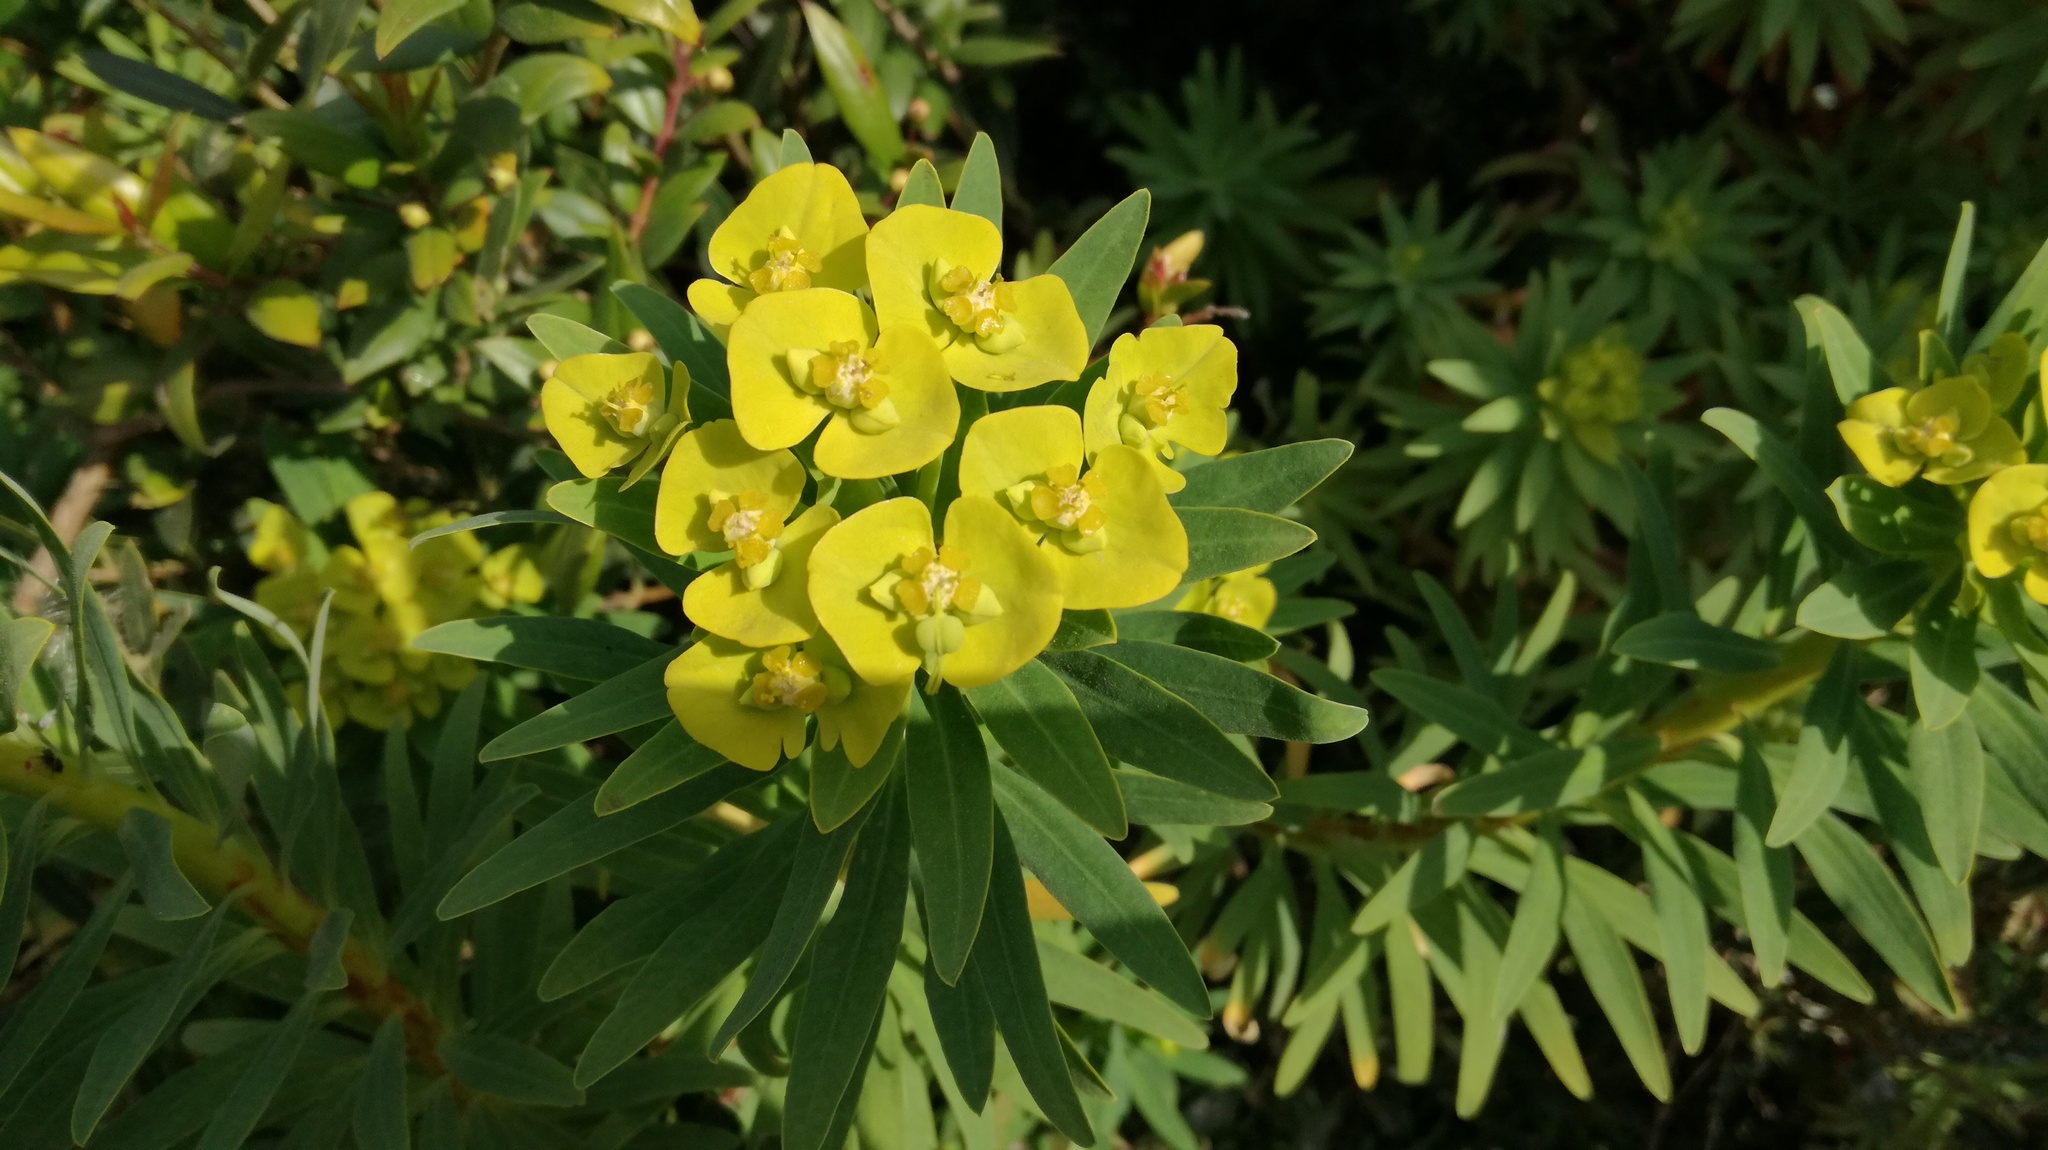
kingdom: Plantae
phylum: Tracheophyta
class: Magnoliopsida
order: Malpighiales
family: Euphorbiaceae
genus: Euphorbia
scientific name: Euphorbia dendroides
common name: Tree spurge
